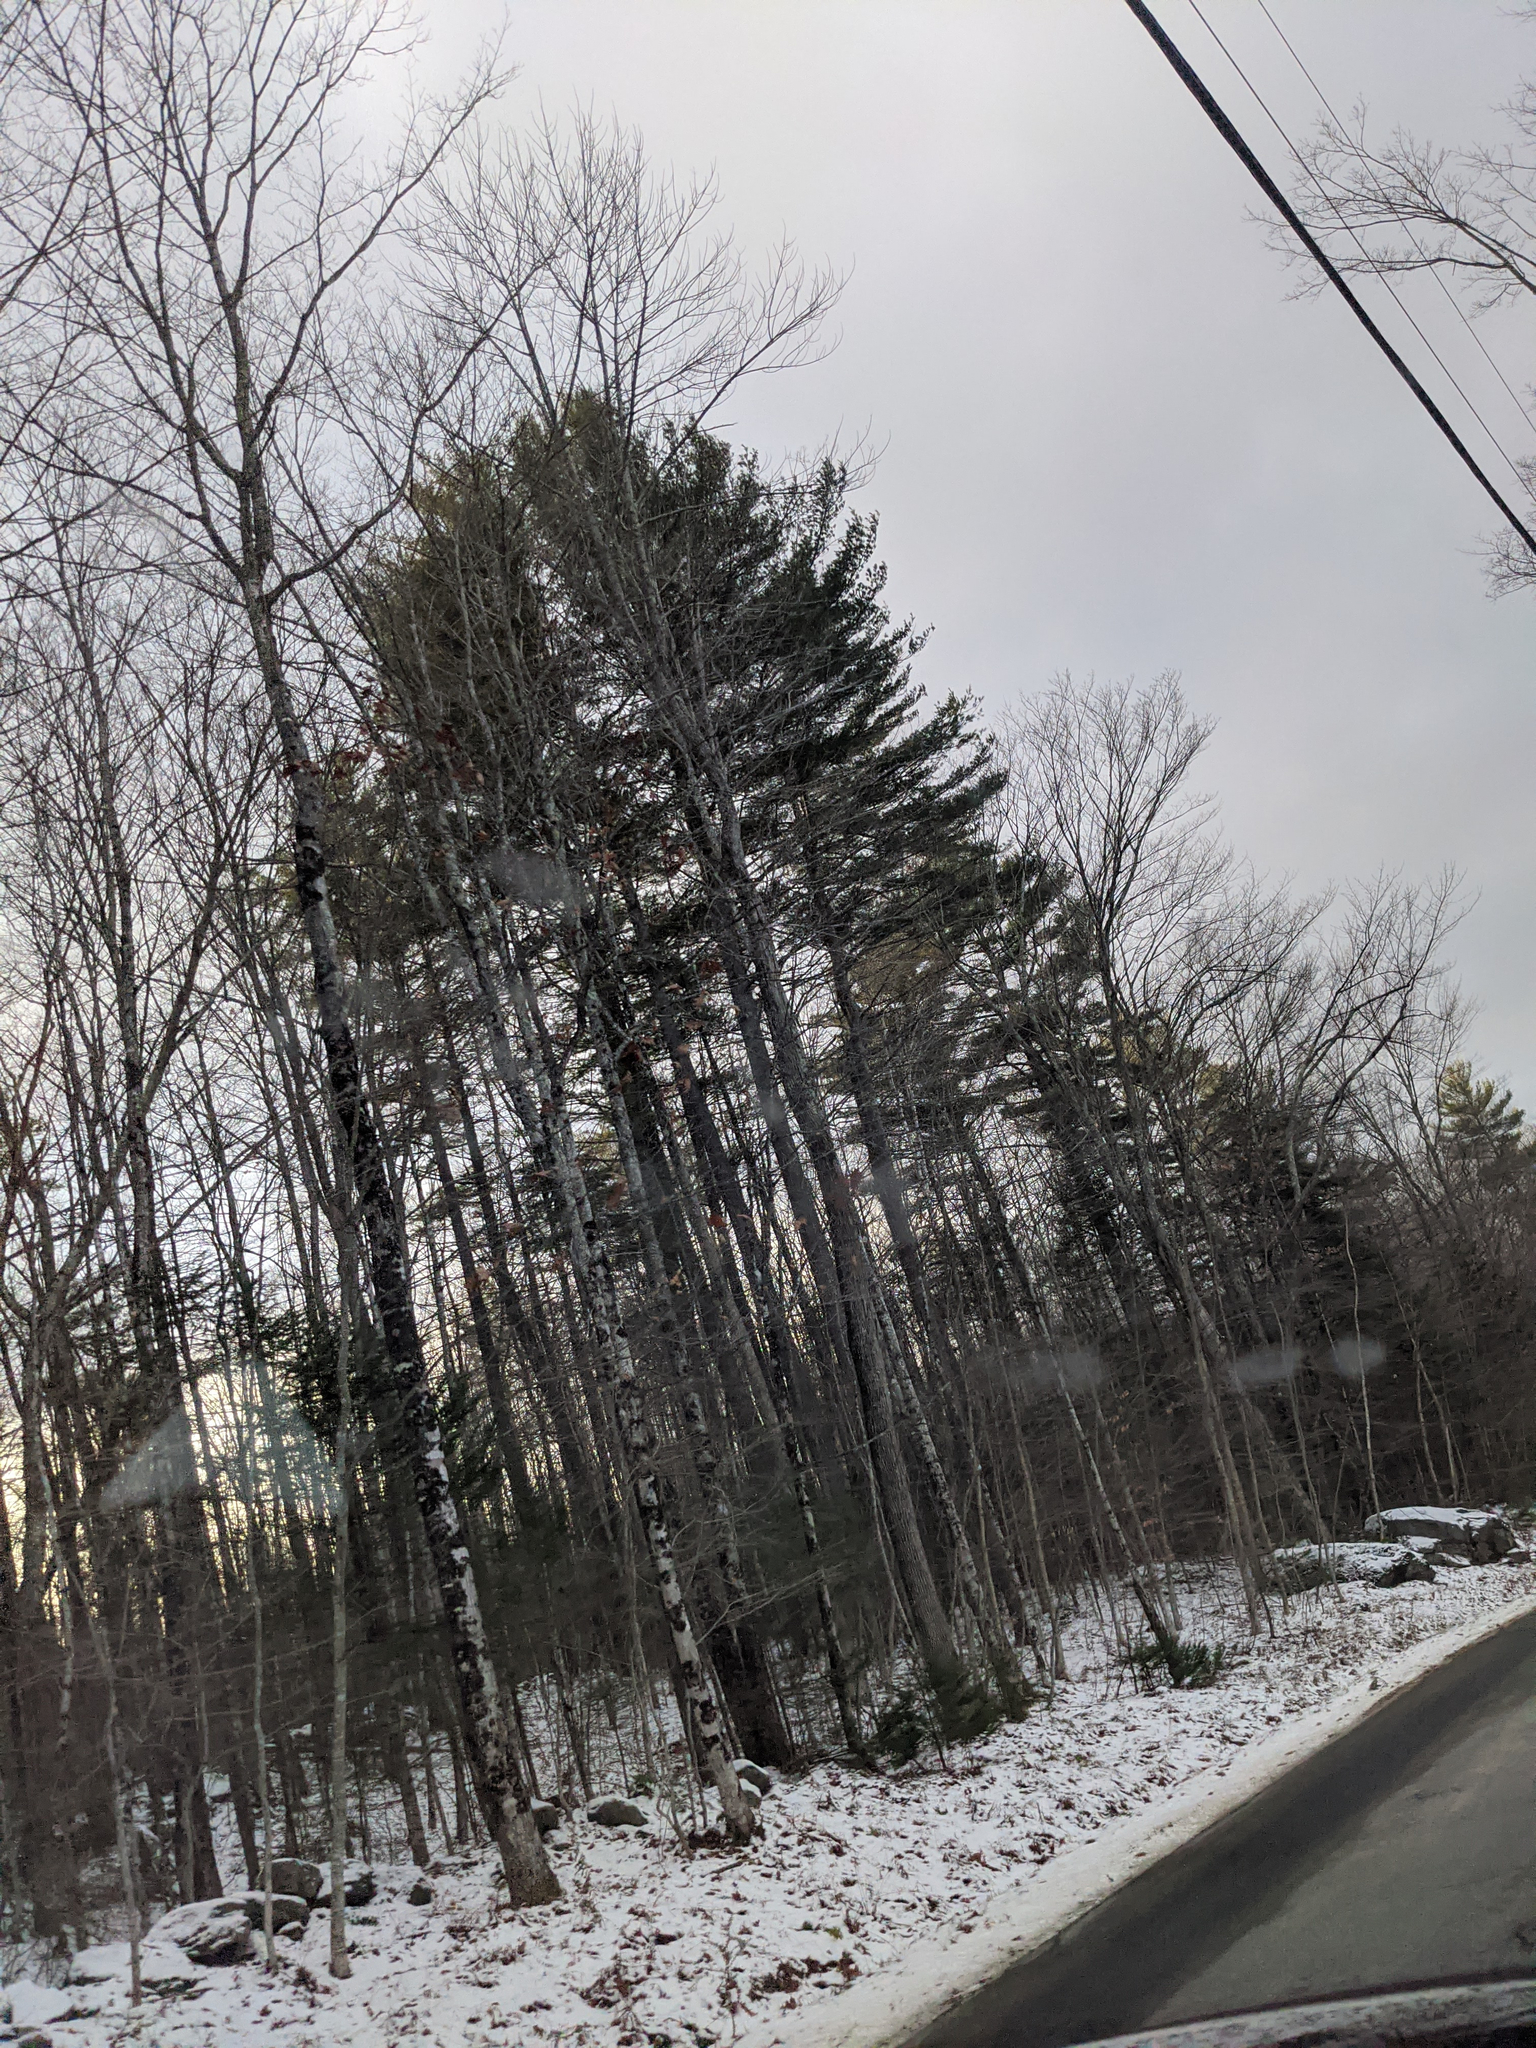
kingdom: Plantae
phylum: Tracheophyta
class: Pinopsida
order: Pinales
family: Pinaceae
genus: Pinus
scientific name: Pinus strobus
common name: Weymouth pine
